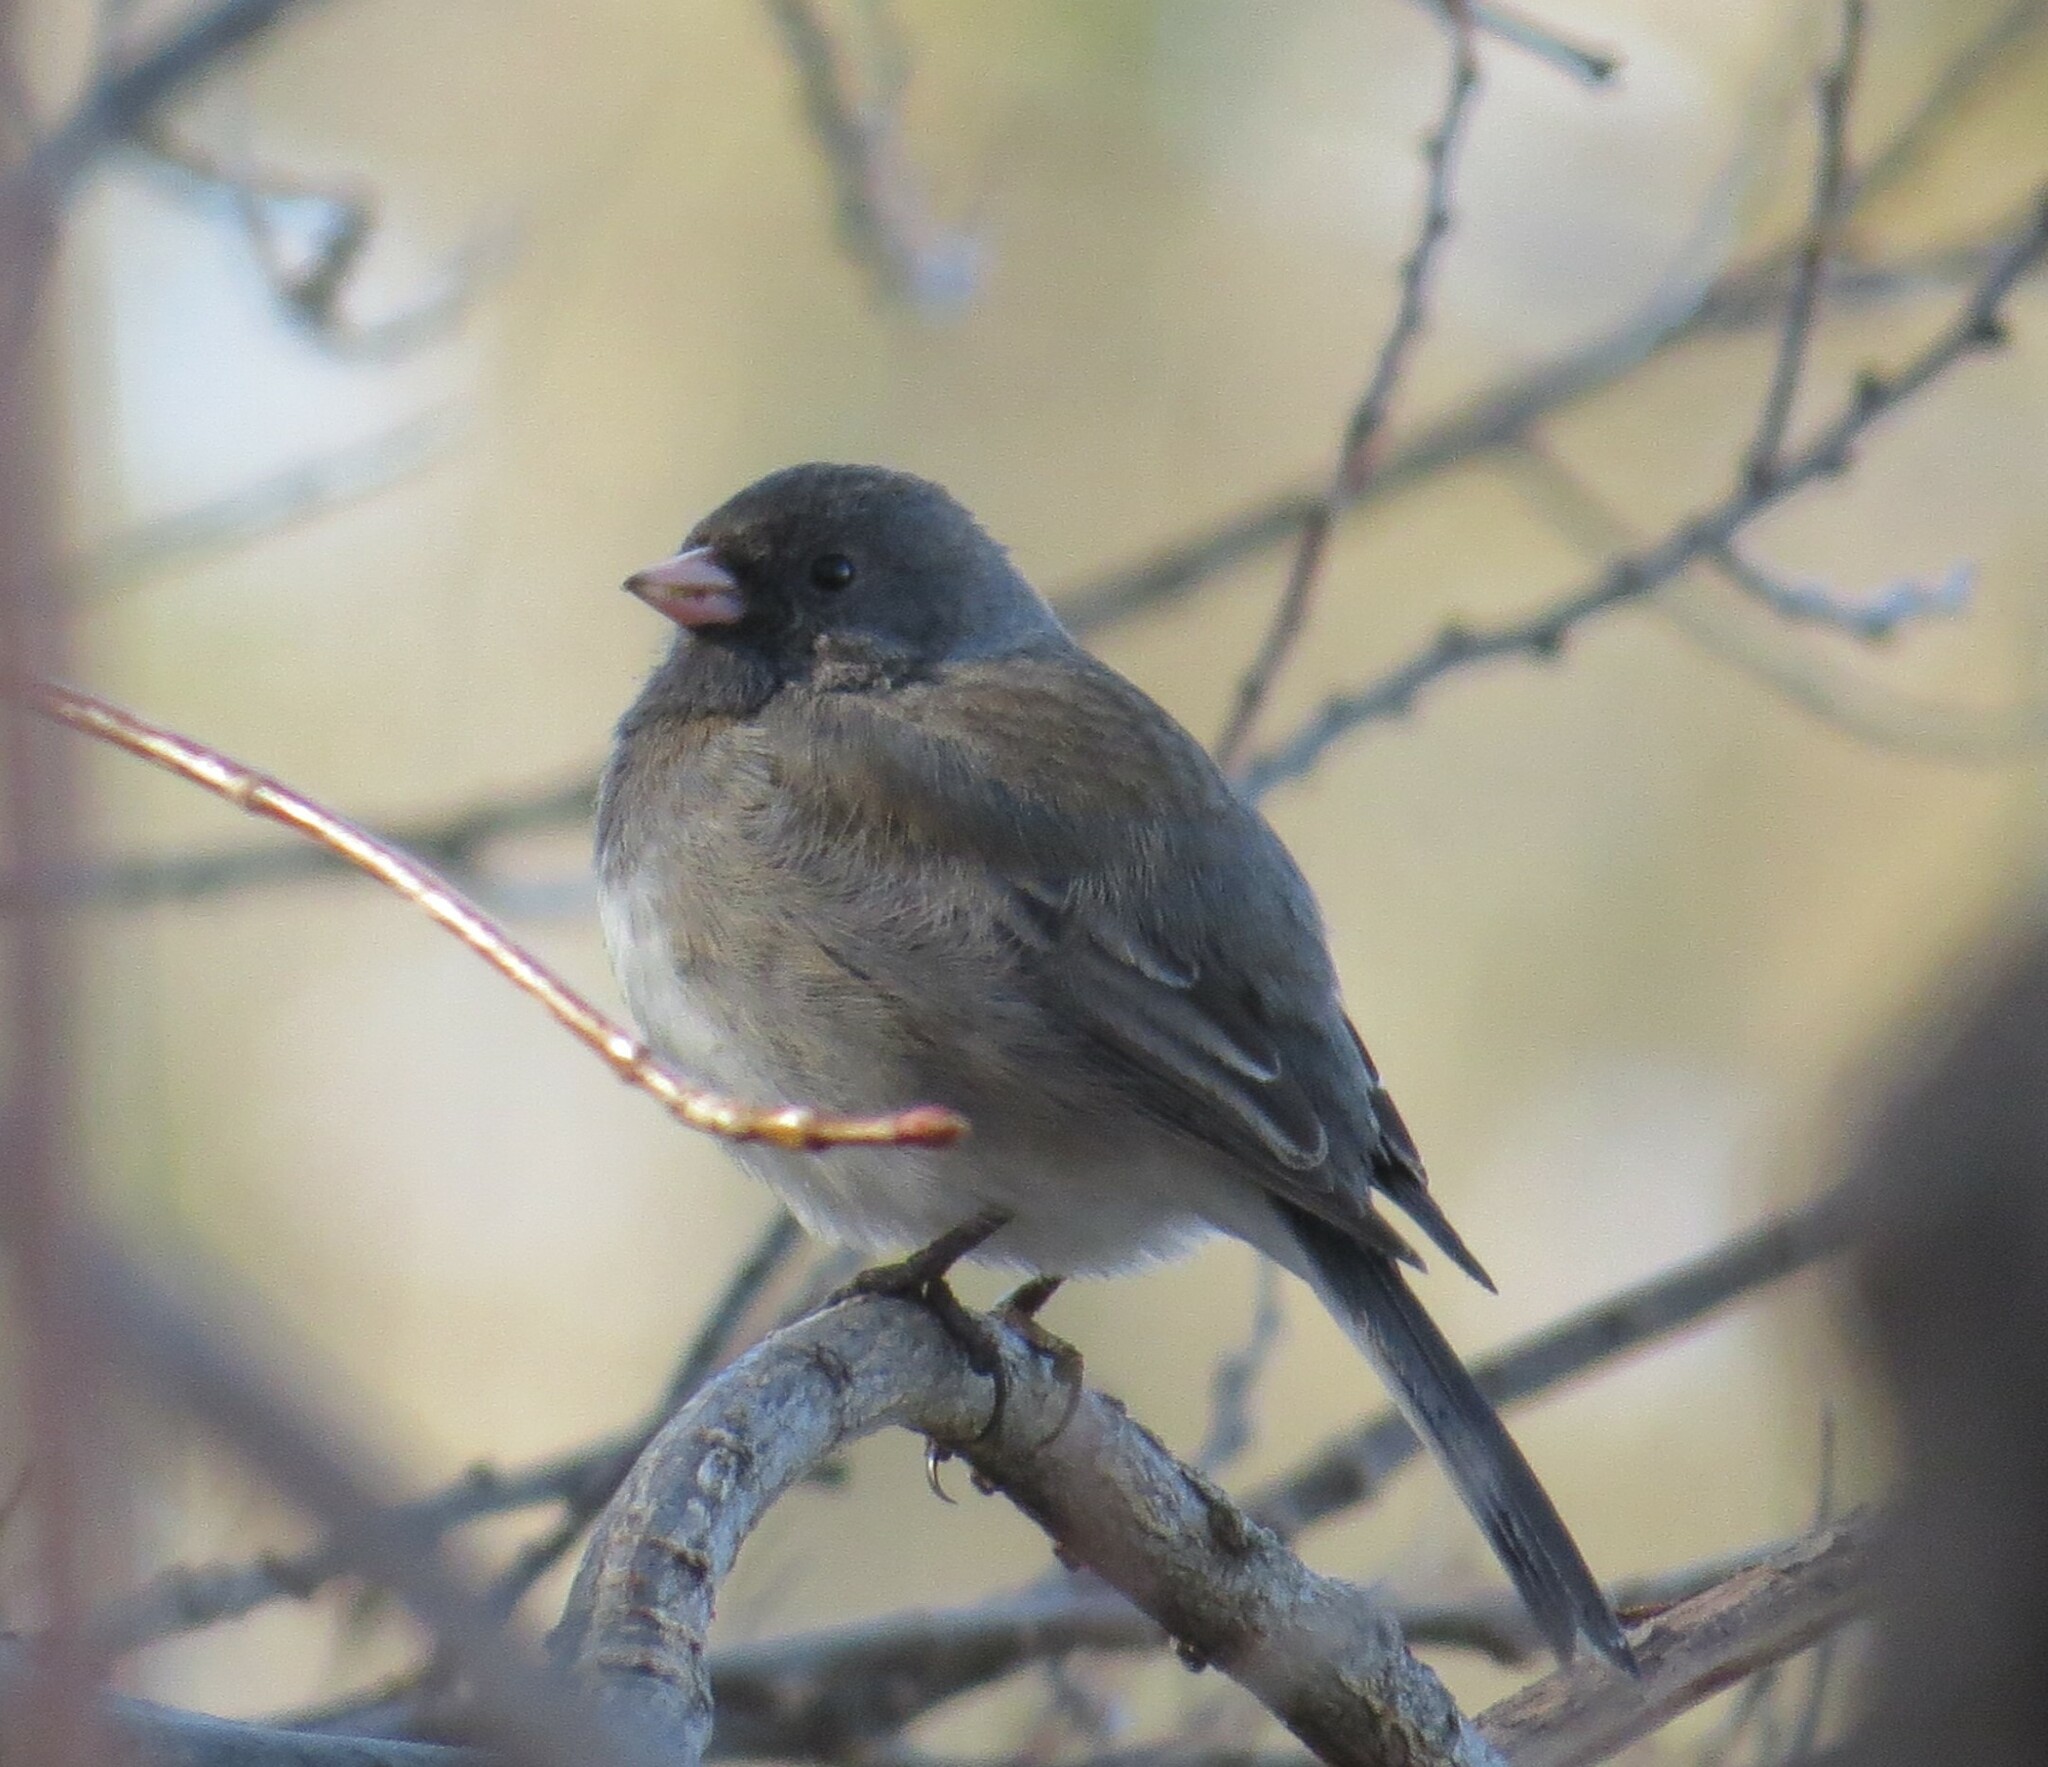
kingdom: Animalia
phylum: Chordata
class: Aves
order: Passeriformes
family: Passerellidae
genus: Junco
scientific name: Junco hyemalis
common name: Dark-eyed junco
